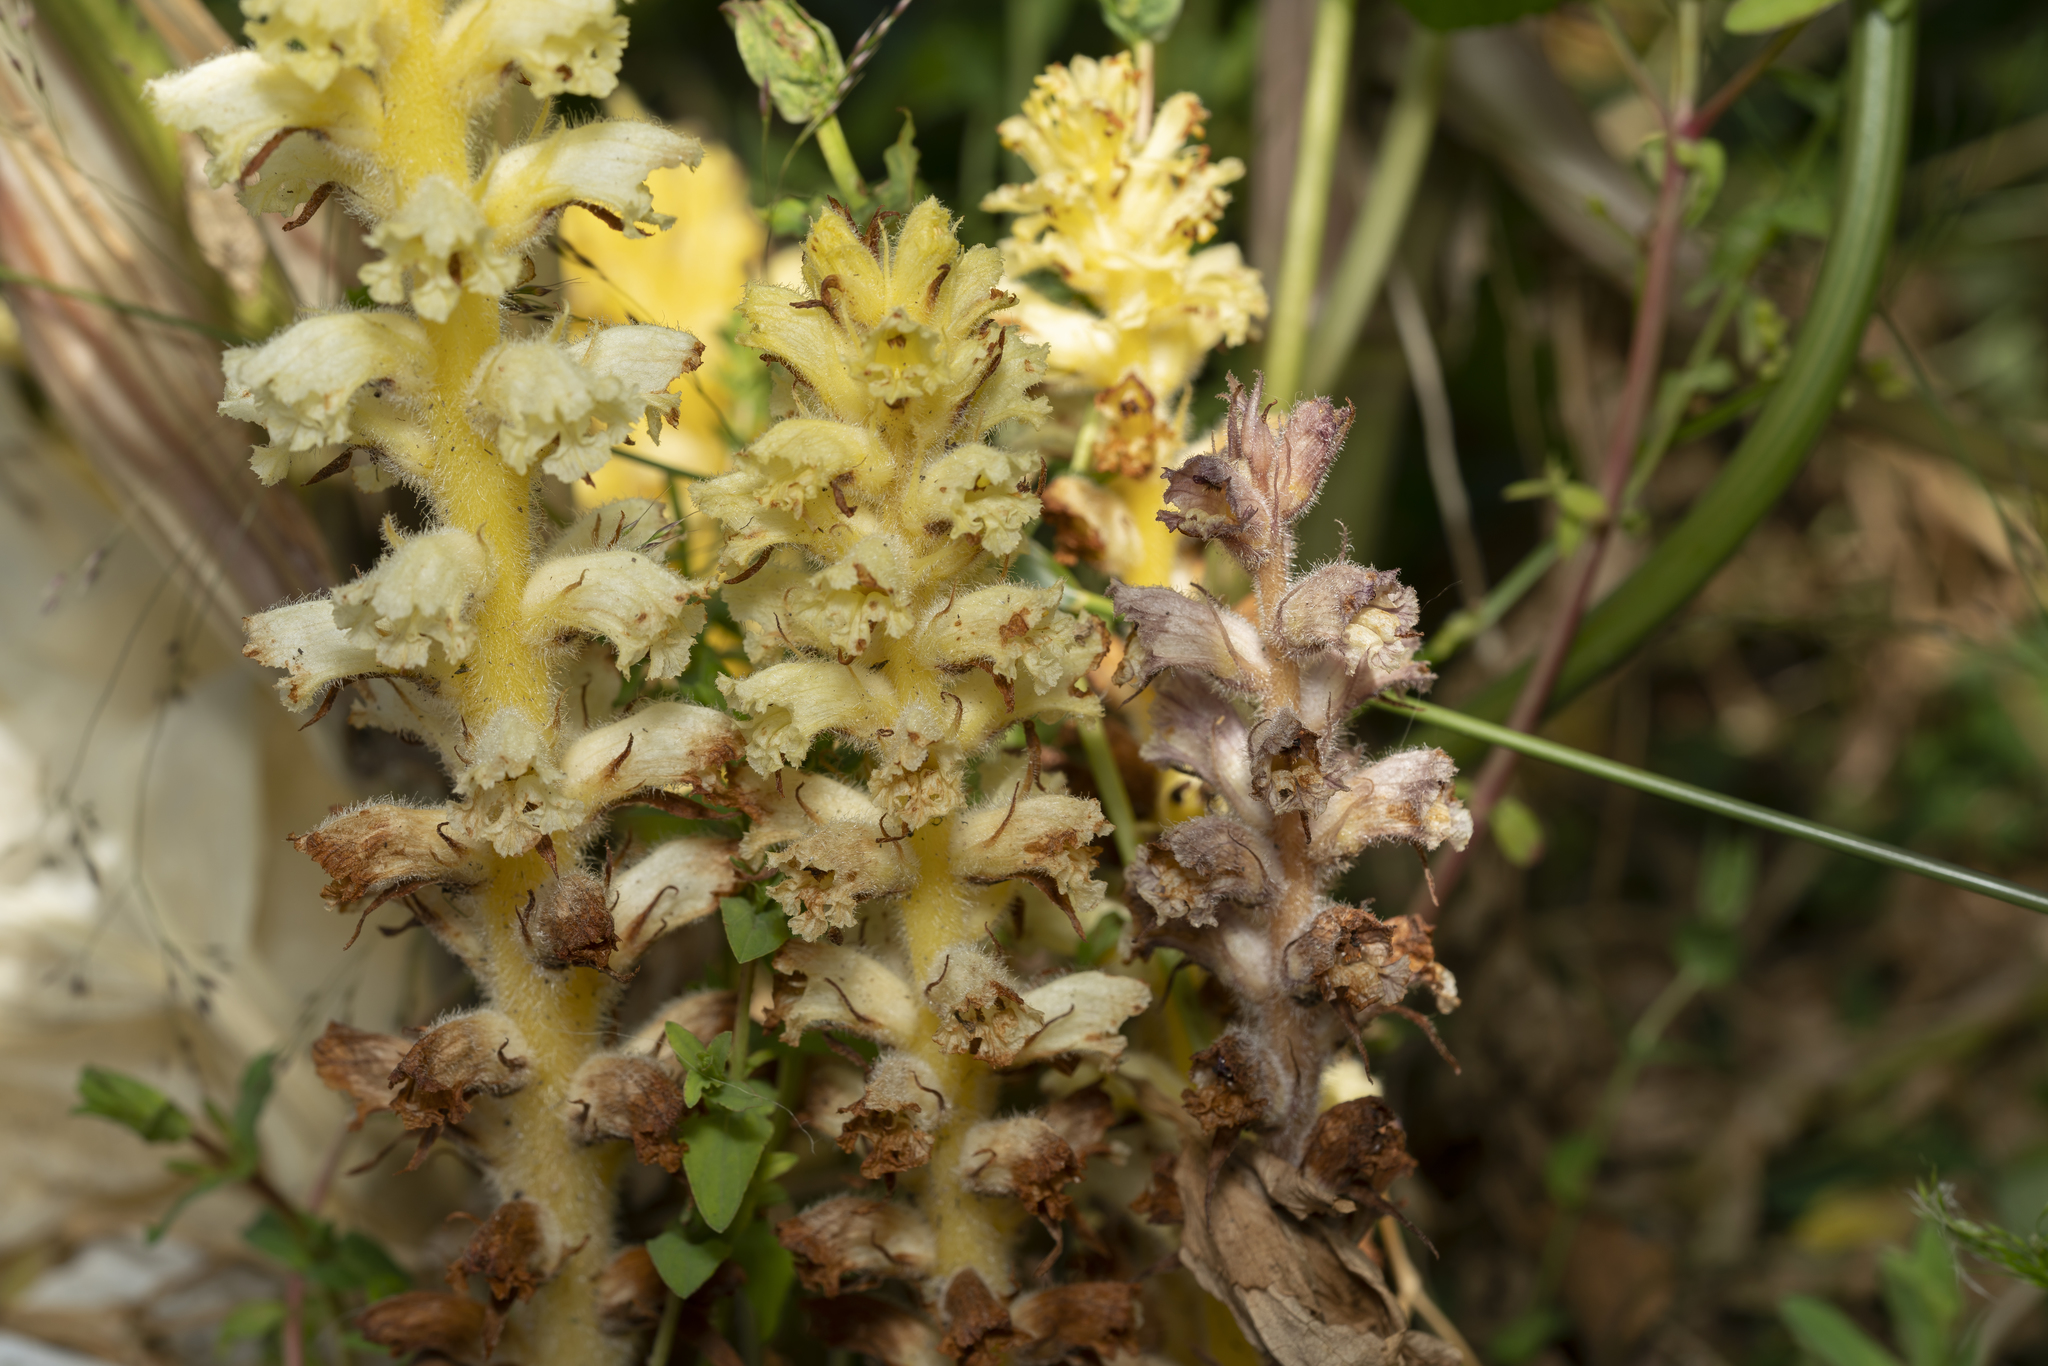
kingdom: Plantae
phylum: Tracheophyta
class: Magnoliopsida
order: Lamiales
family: Orobanchaceae
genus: Orobanche
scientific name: Orobanche pubescens
